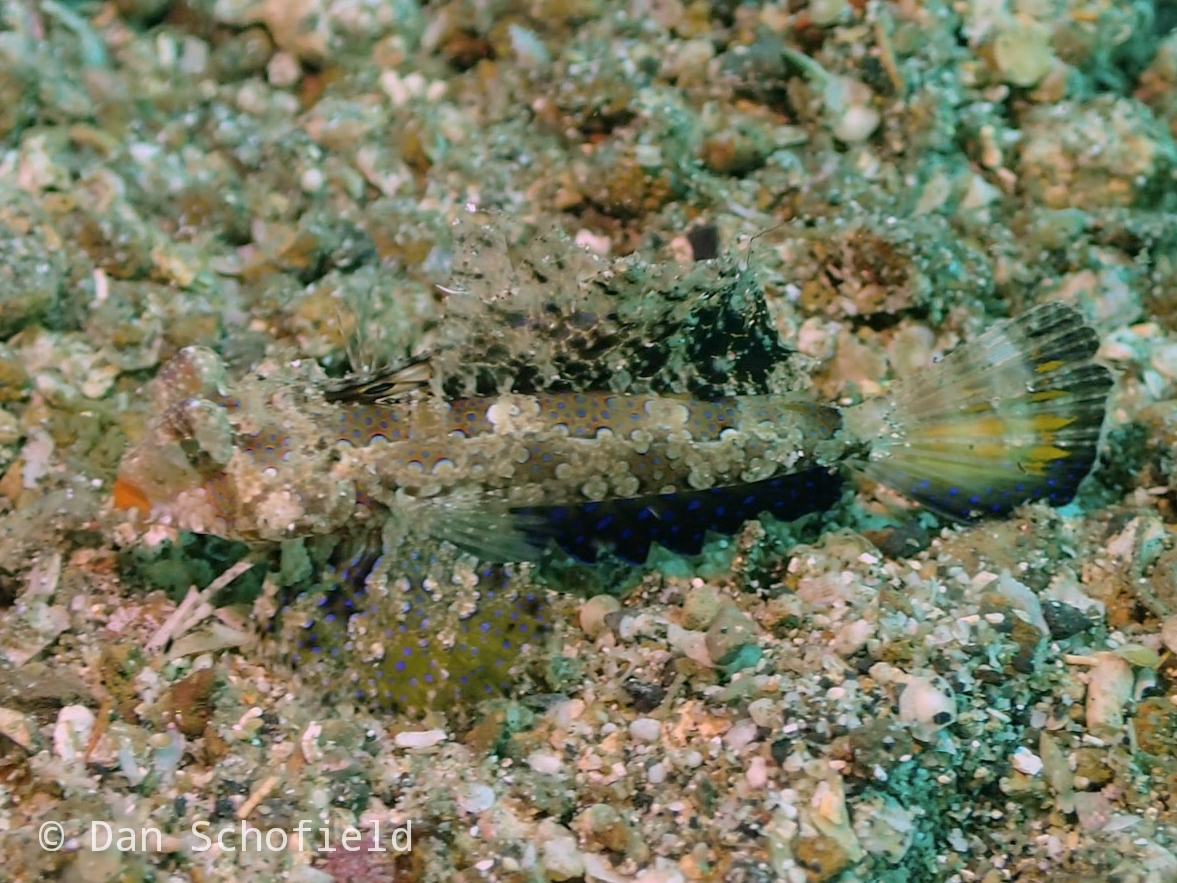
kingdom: Animalia
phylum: Chordata
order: Perciformes
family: Callionymidae
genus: Dactylopus
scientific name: Dactylopus kuiteri
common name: Kuiter's dragonet
